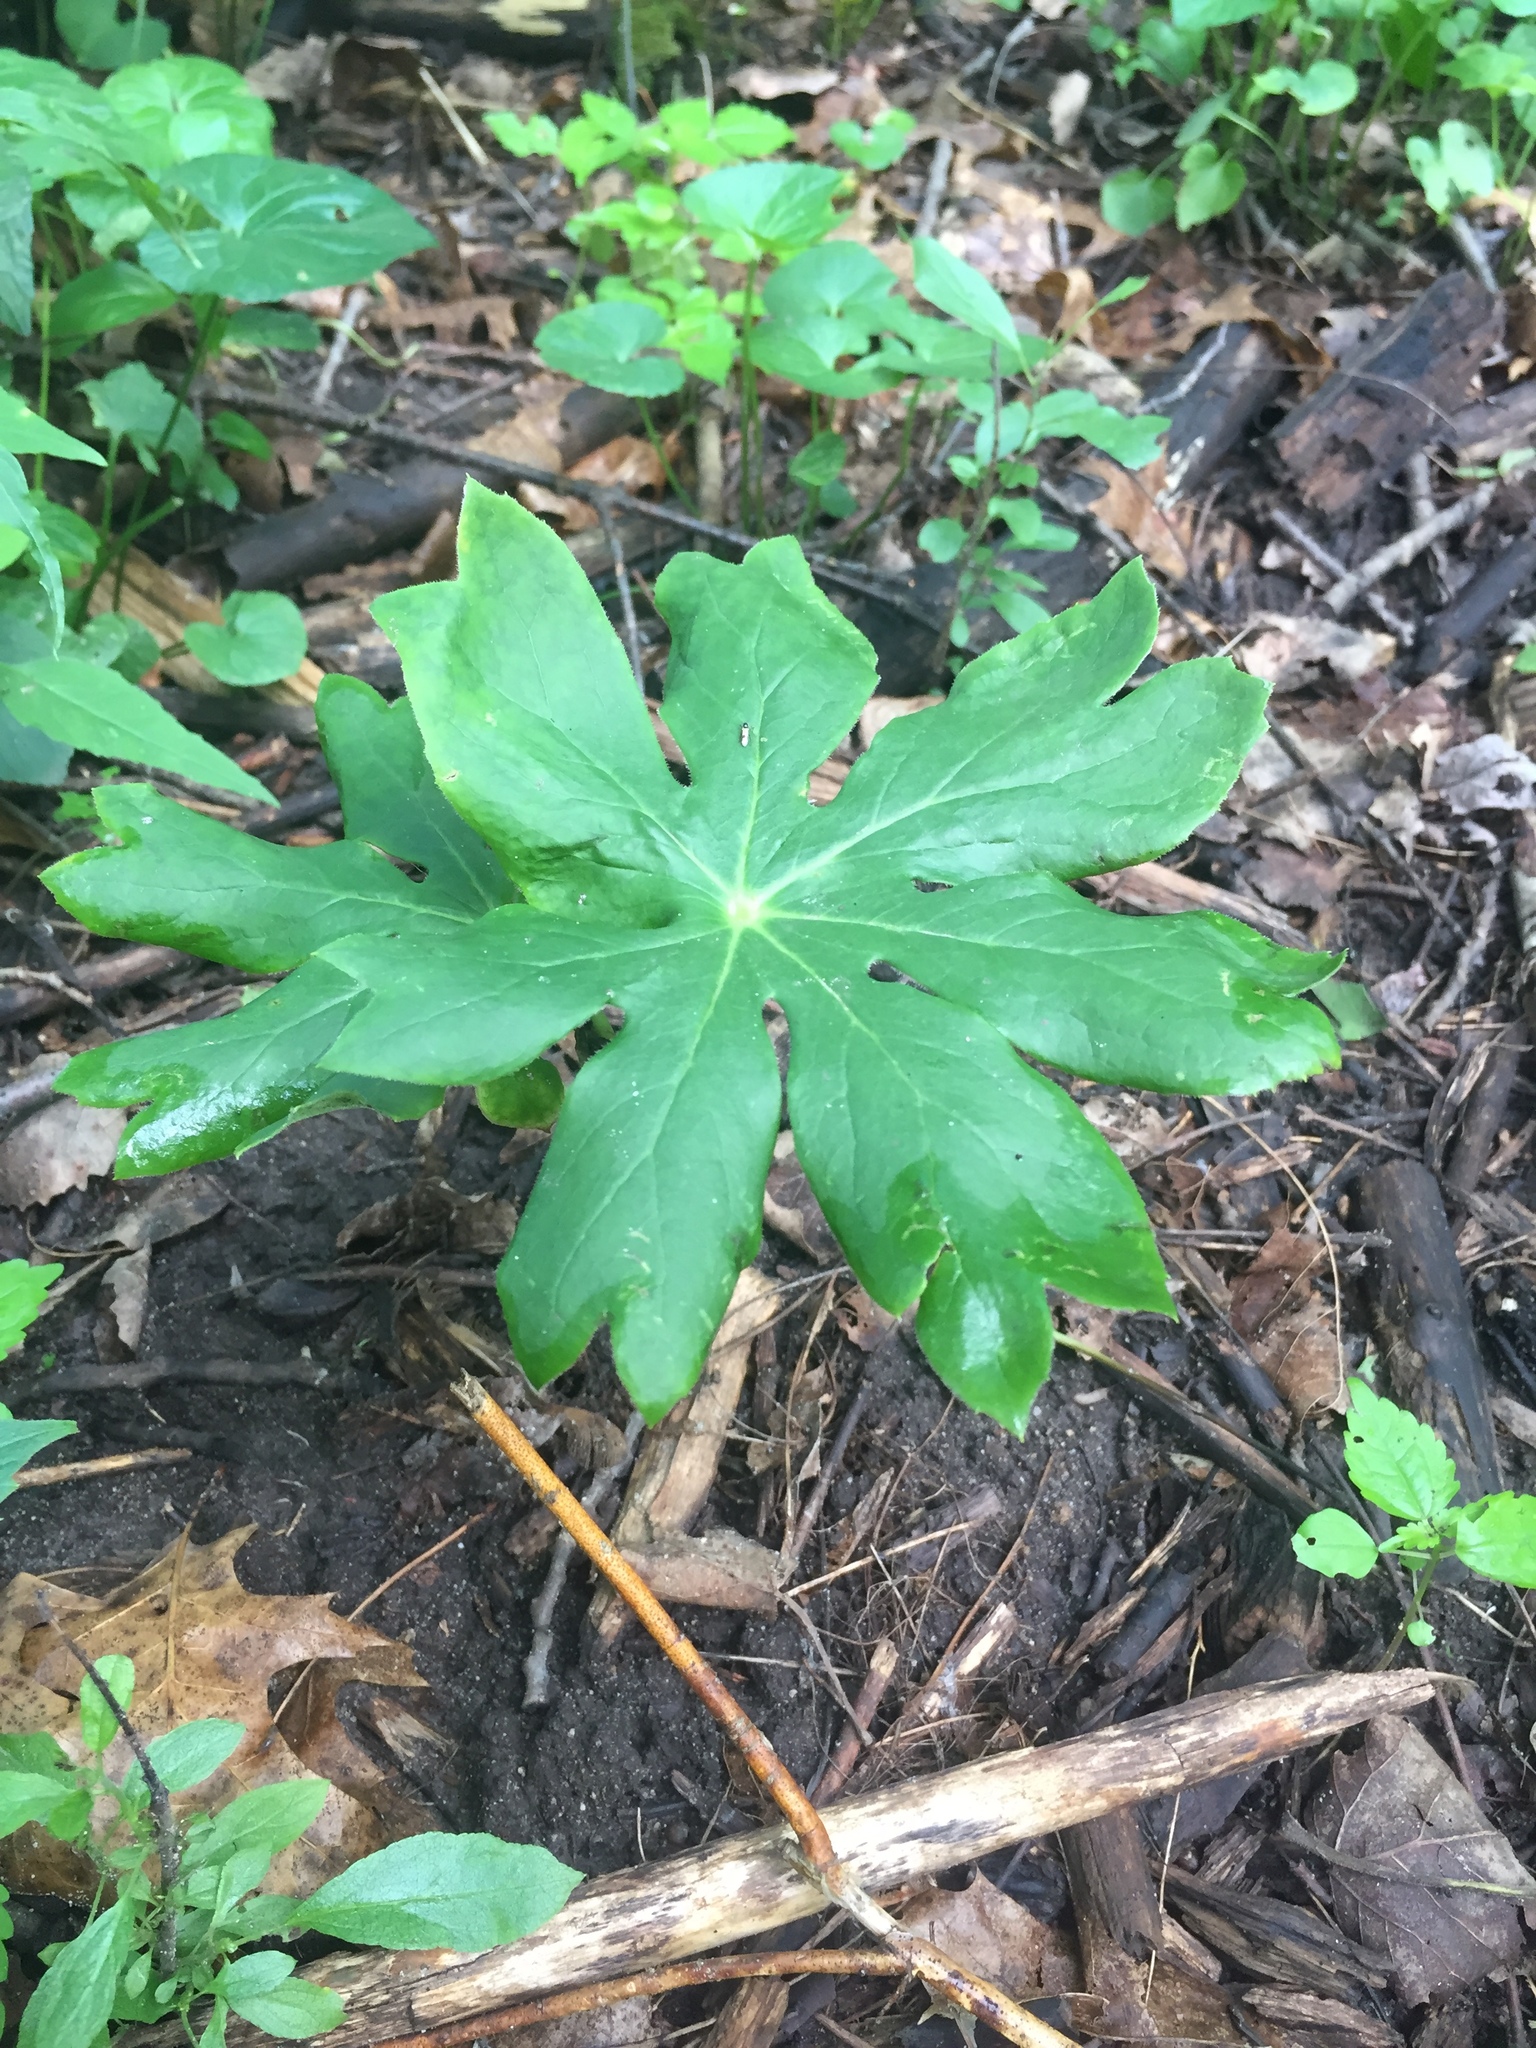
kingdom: Plantae
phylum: Tracheophyta
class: Magnoliopsida
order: Ranunculales
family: Berberidaceae
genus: Podophyllum
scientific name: Podophyllum peltatum
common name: Wild mandrake
